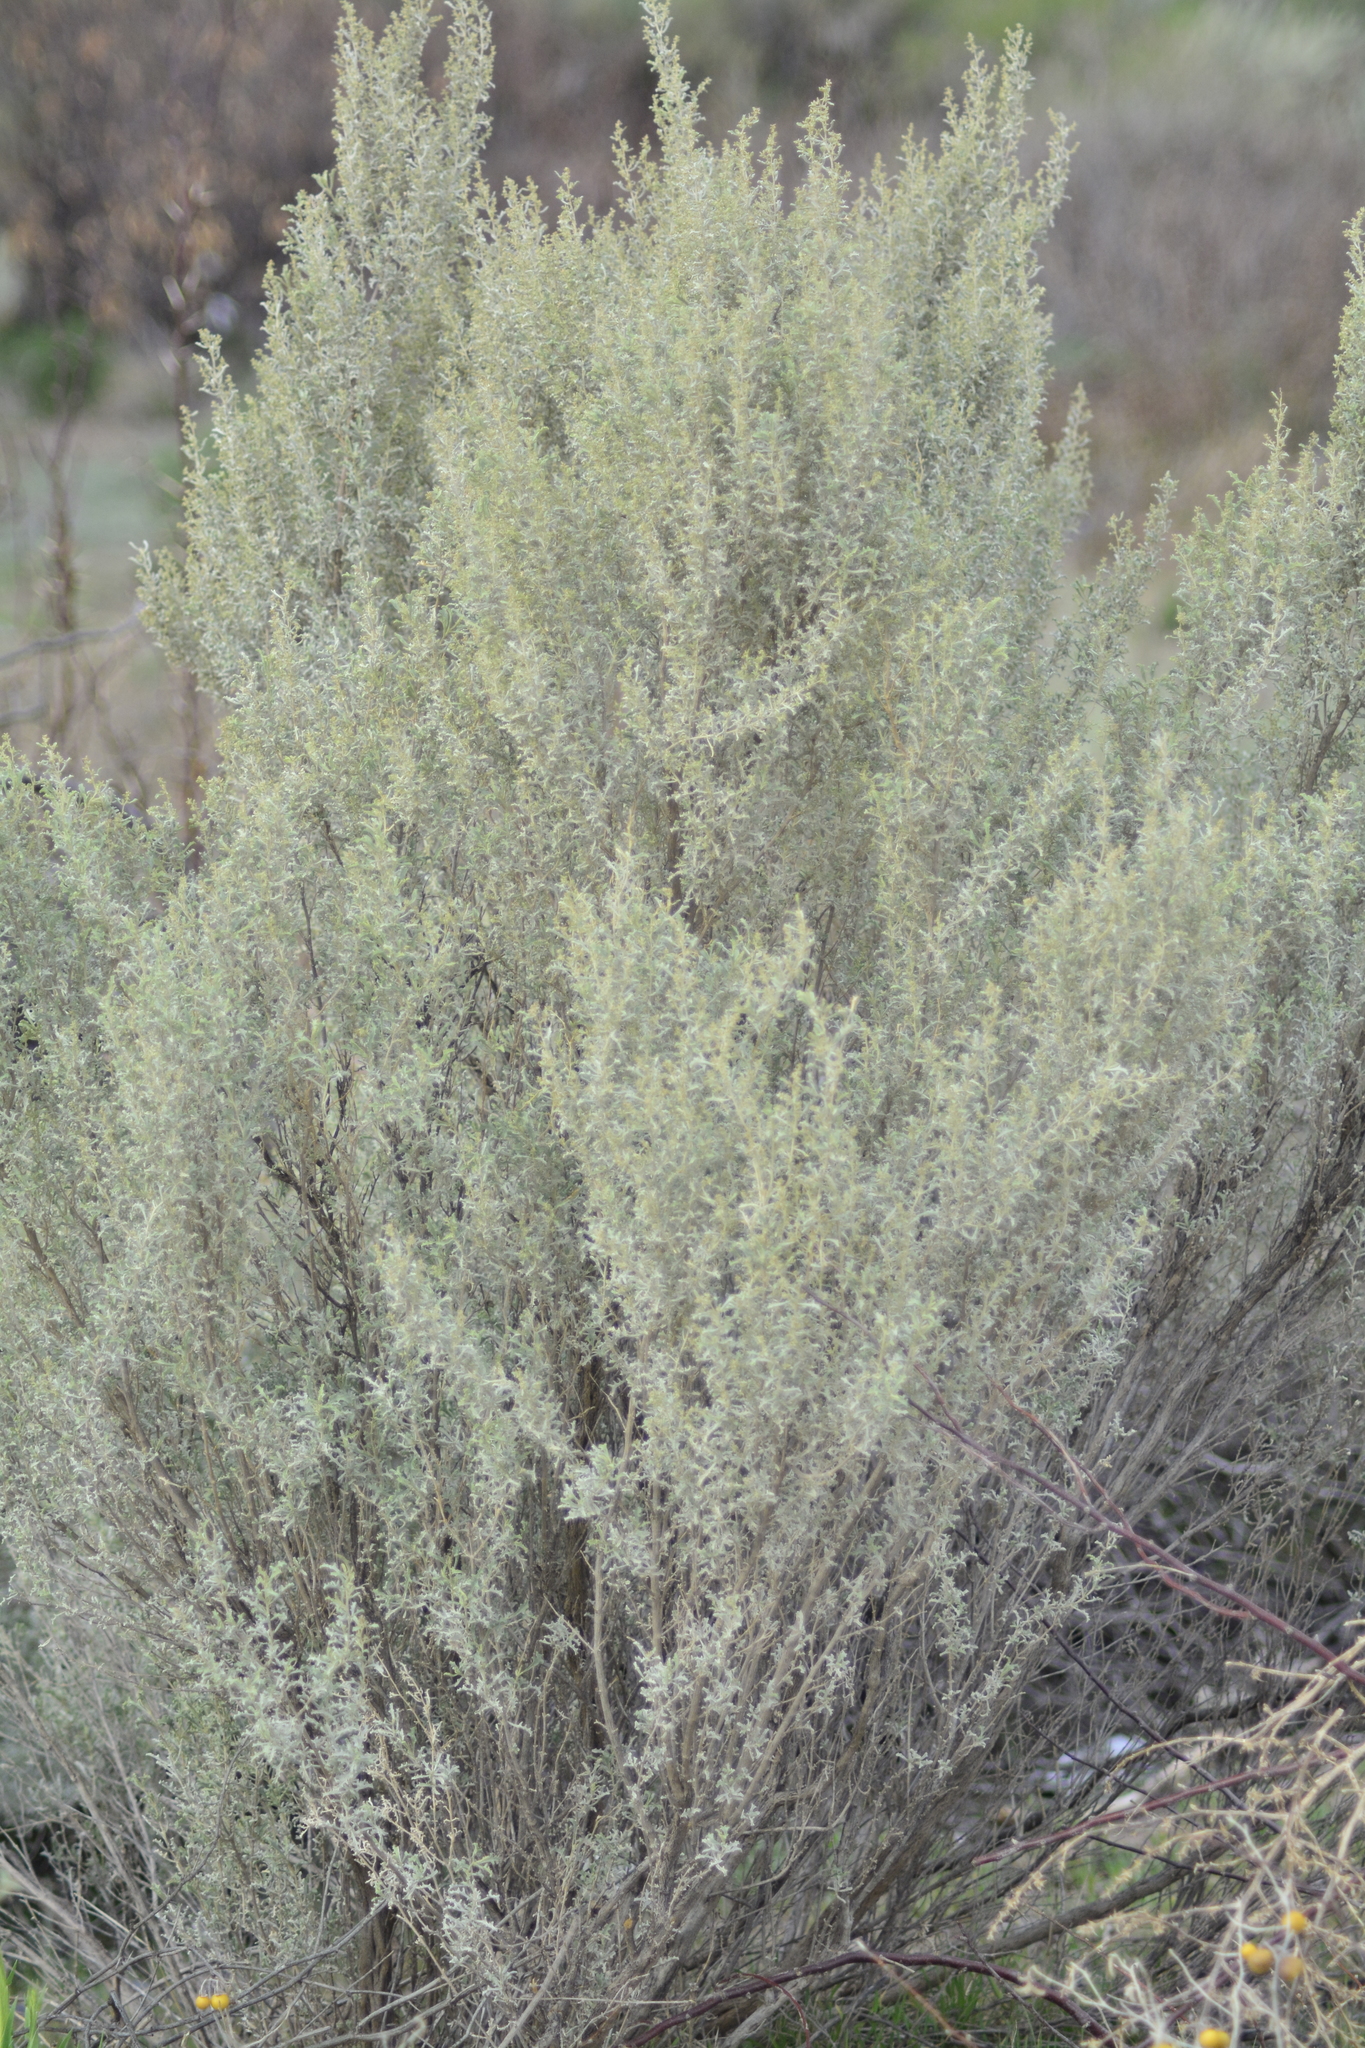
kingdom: Plantae
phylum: Tracheophyta
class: Magnoliopsida
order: Caryophyllales
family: Amaranthaceae
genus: Atriplex
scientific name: Atriplex lampa
